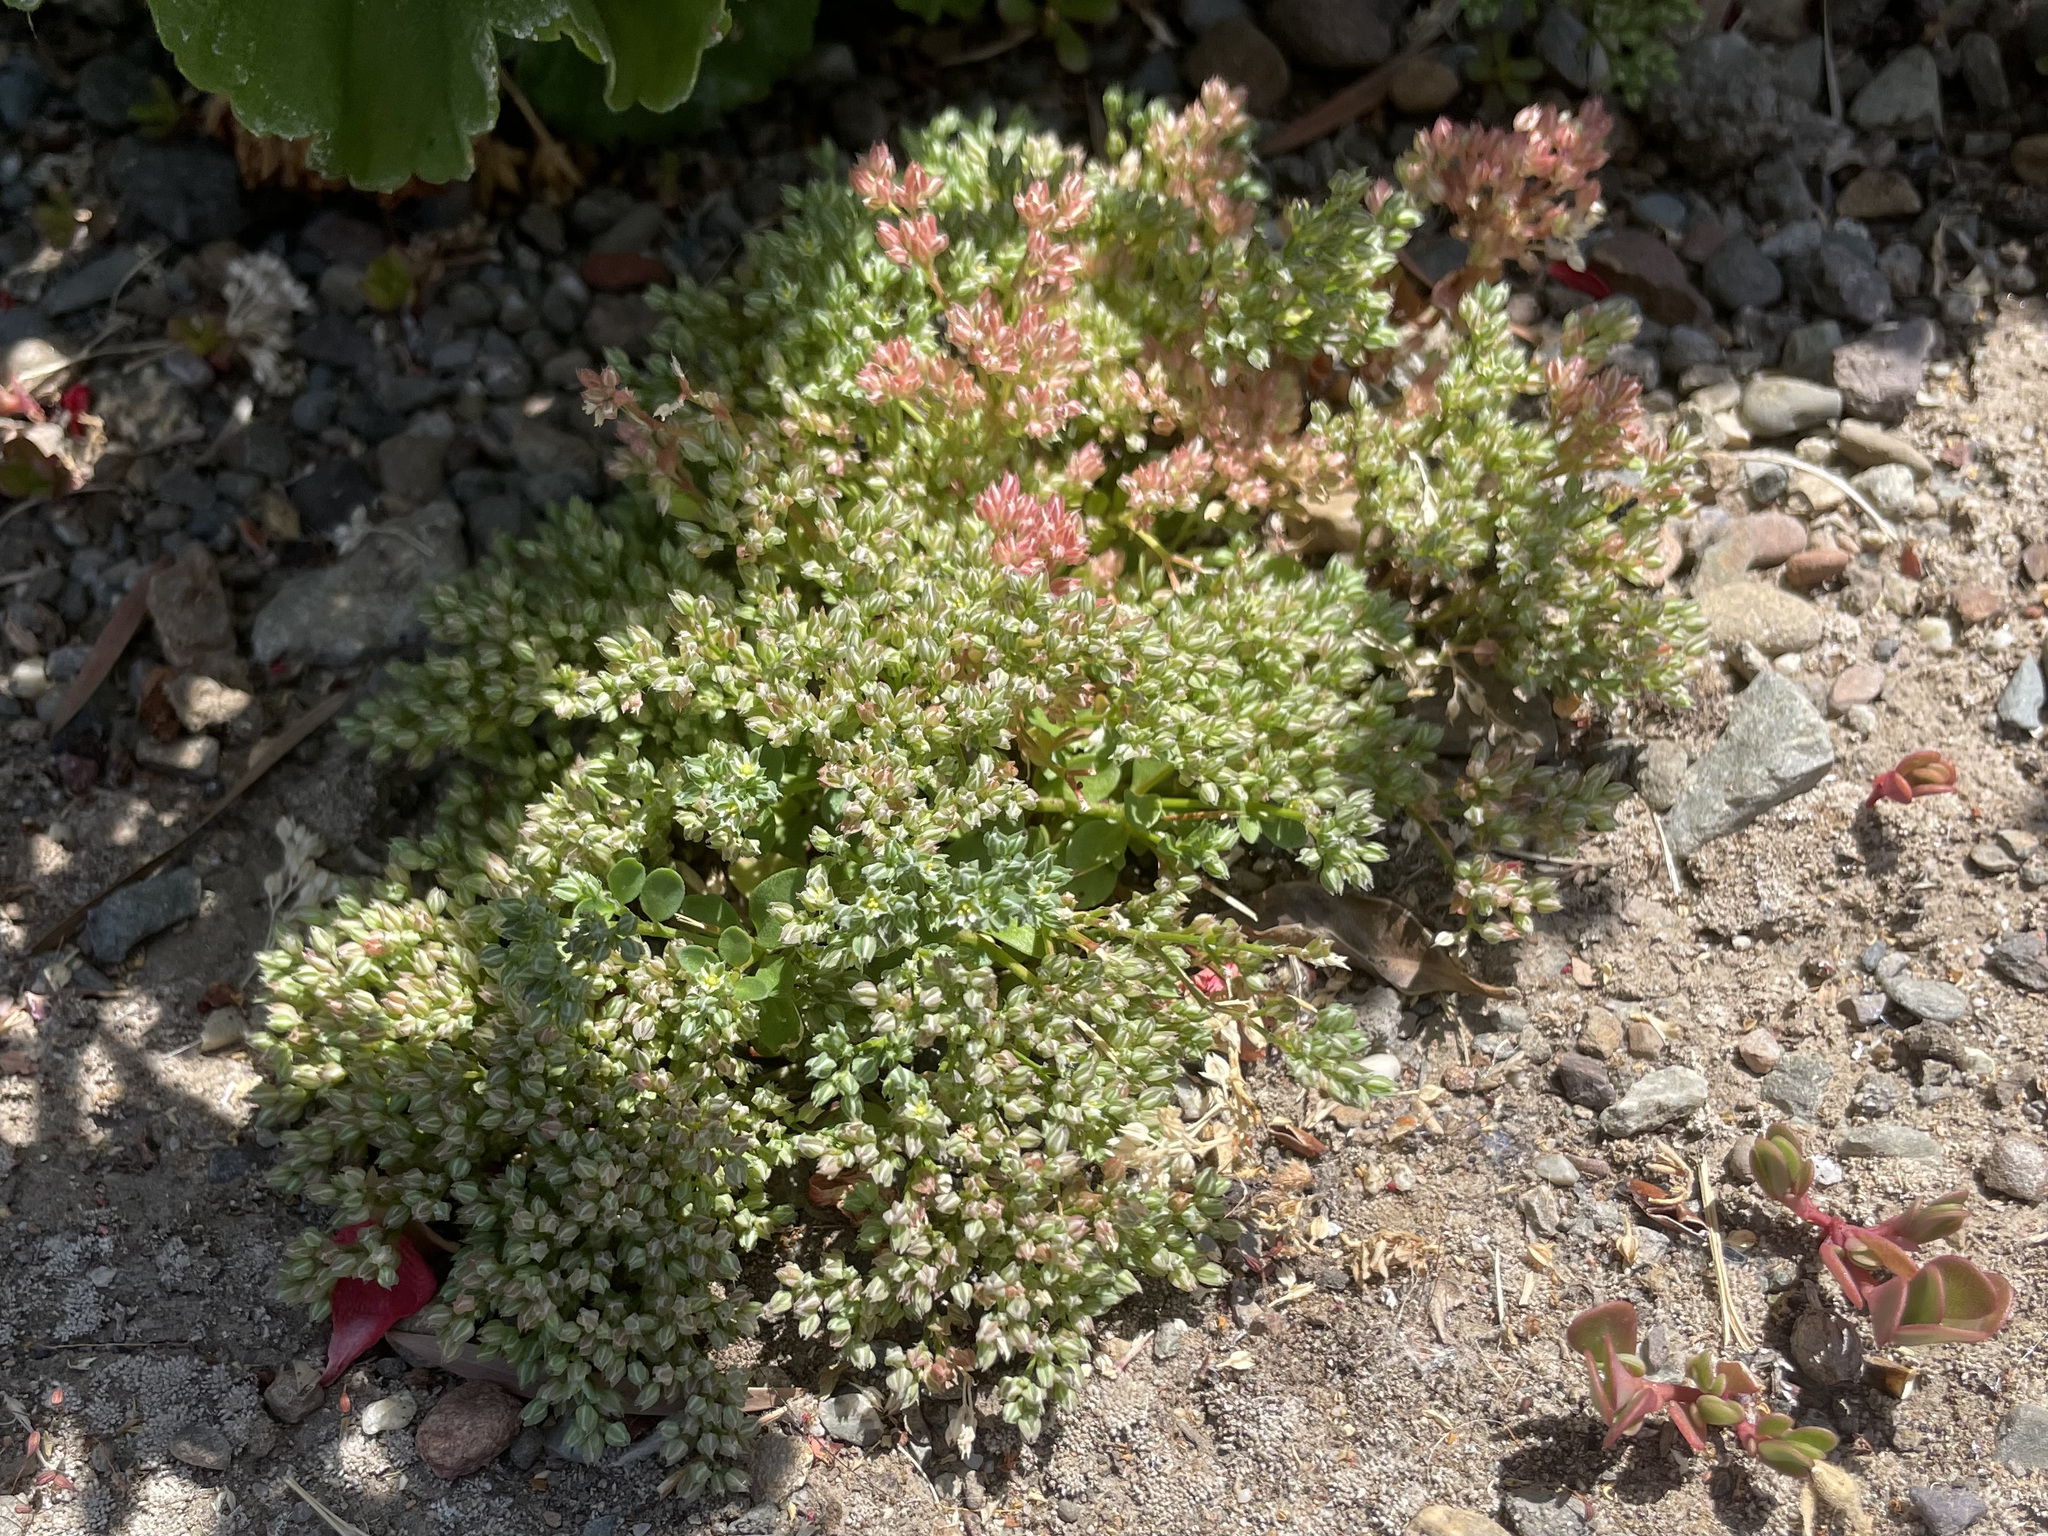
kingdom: Plantae
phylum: Tracheophyta
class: Magnoliopsida
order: Caryophyllales
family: Caryophyllaceae
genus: Polycarpon
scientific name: Polycarpon tetraphyllum
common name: Four-leaved all-seed
